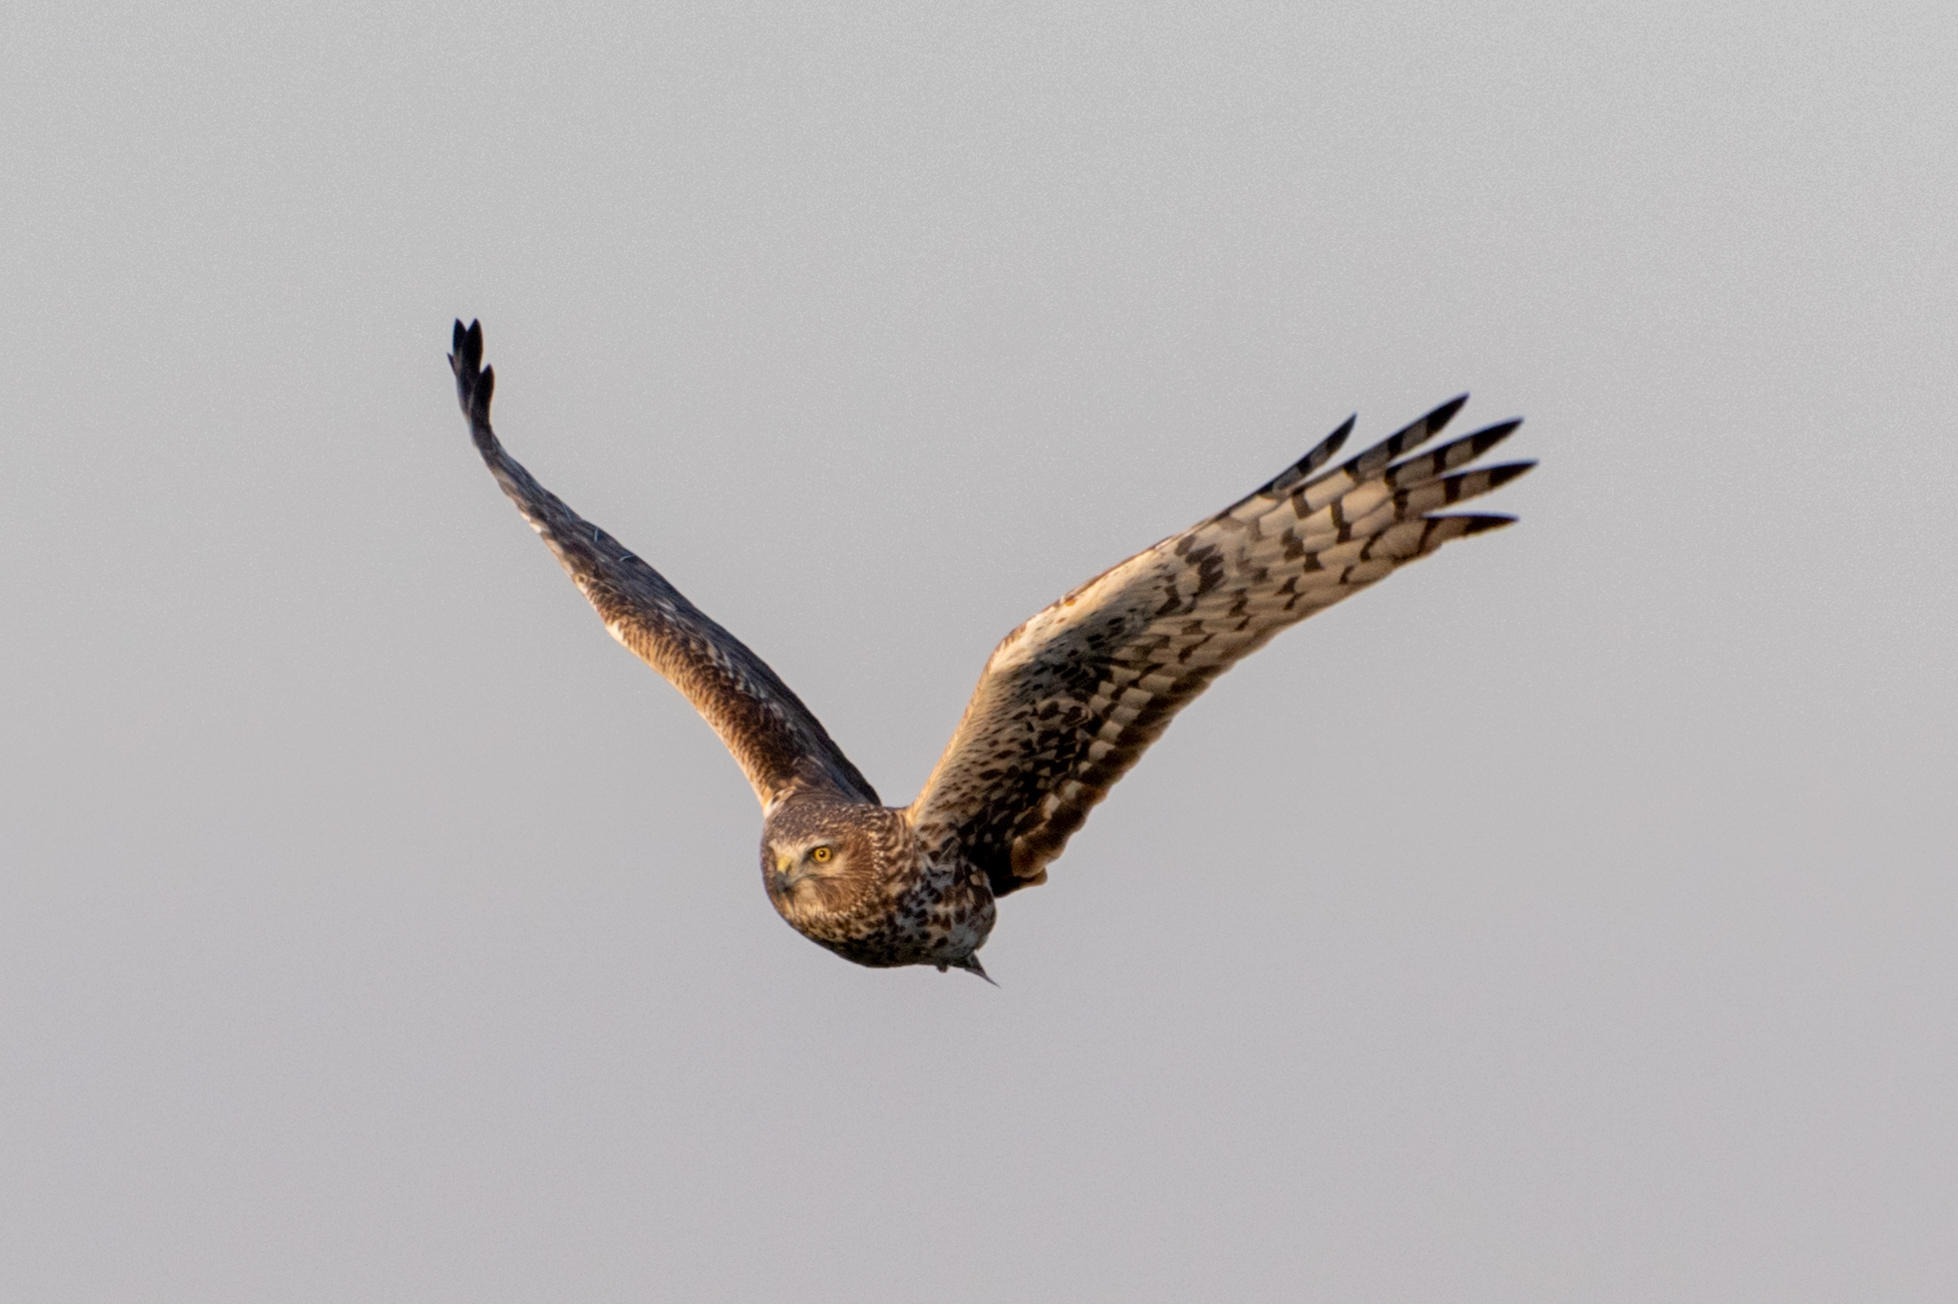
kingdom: Animalia
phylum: Chordata
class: Aves
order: Accipitriformes
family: Accipitridae
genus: Circus
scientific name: Circus cyaneus
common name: Hen harrier
